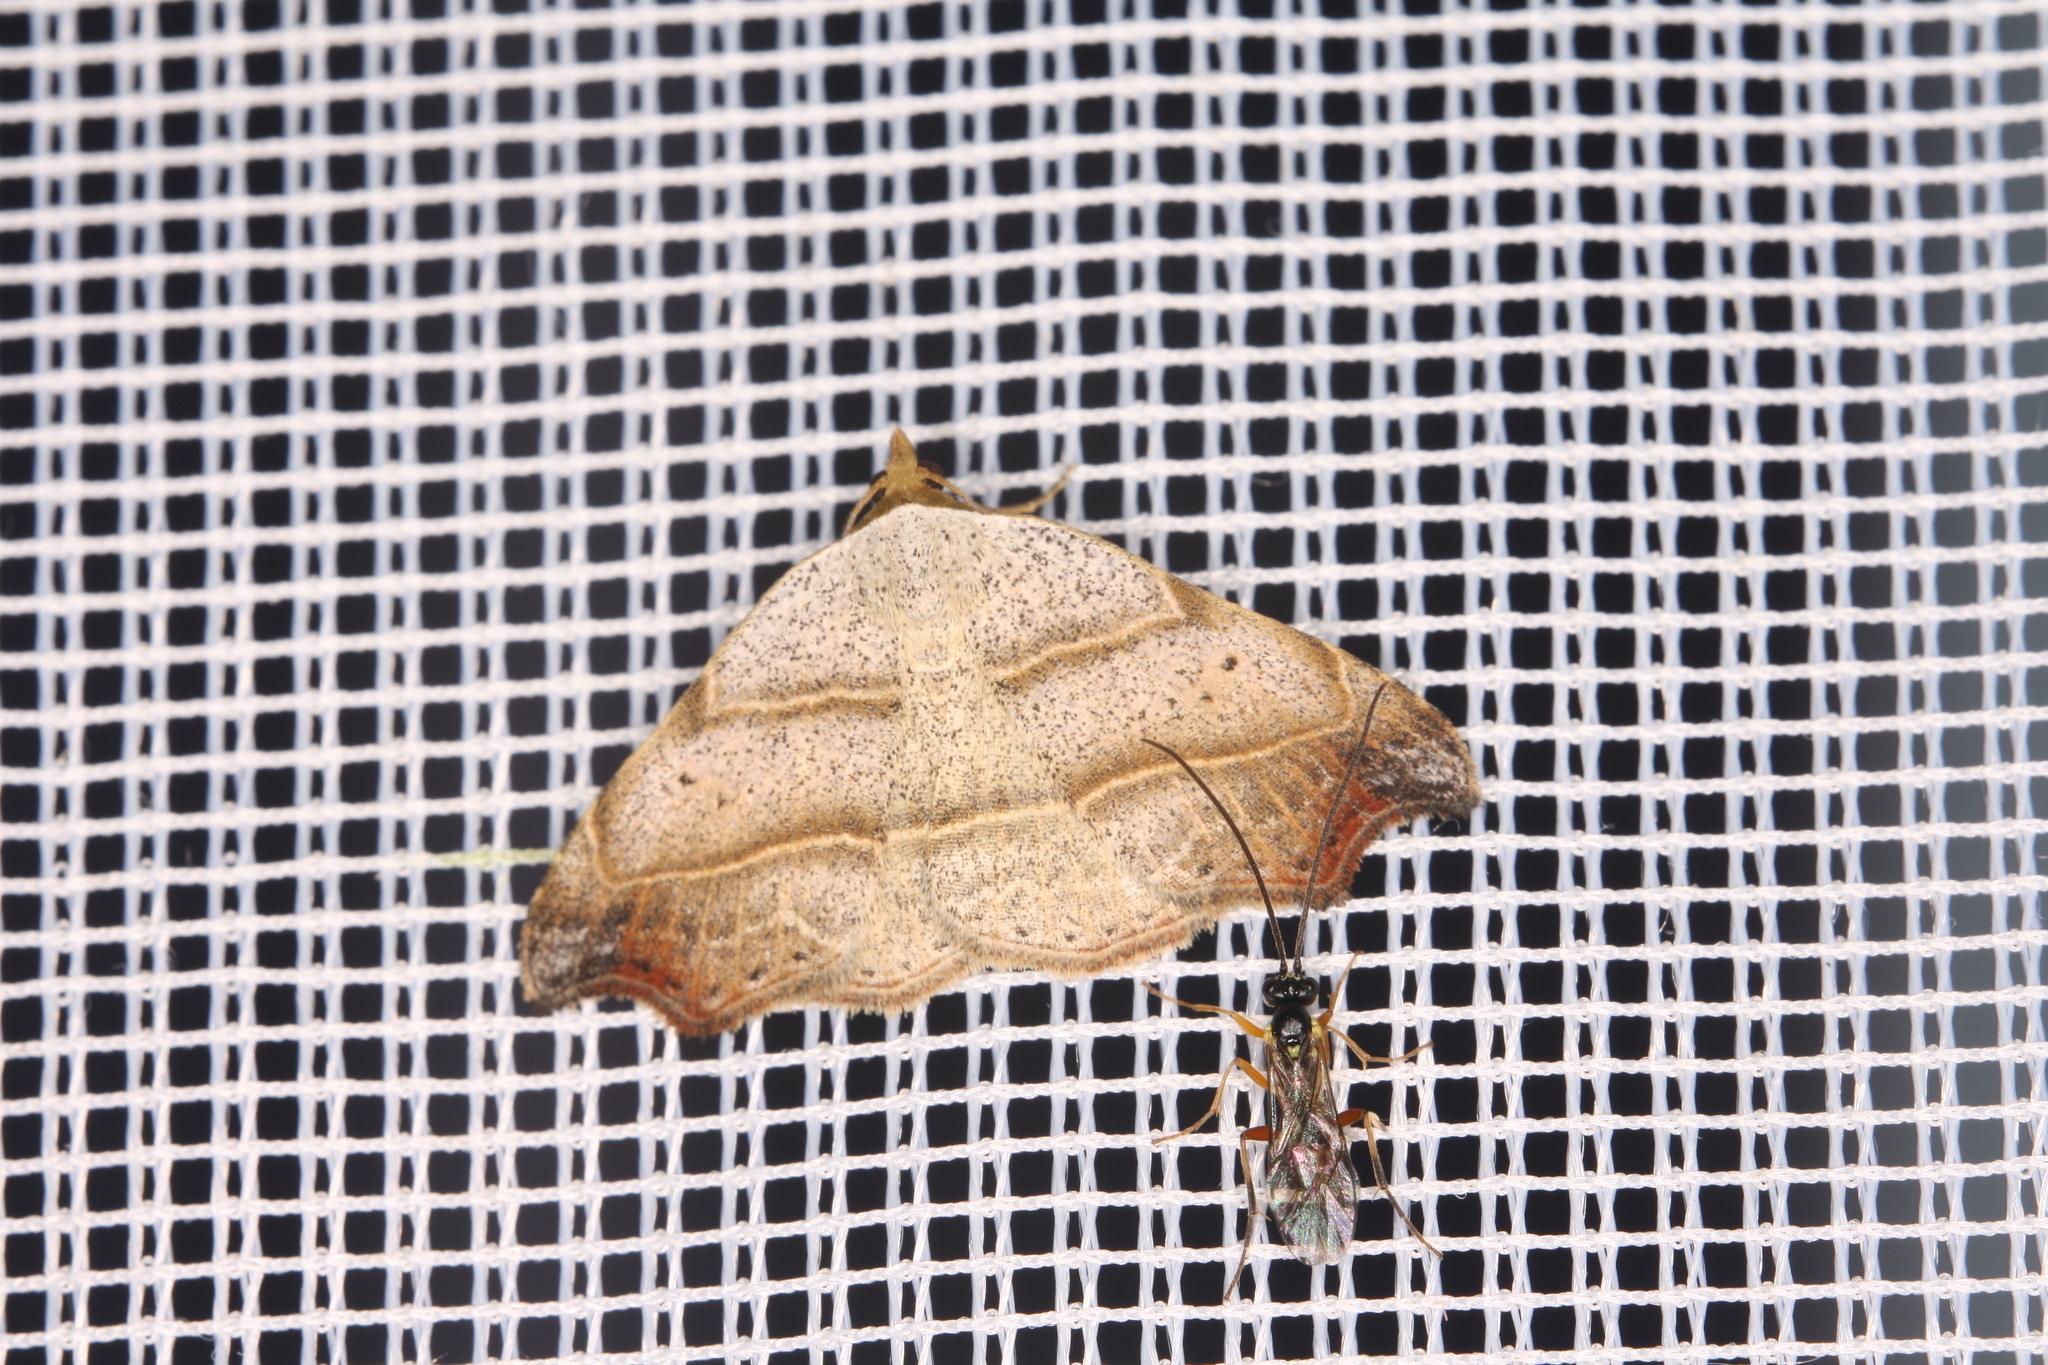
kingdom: Animalia
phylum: Arthropoda
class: Insecta
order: Lepidoptera
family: Erebidae
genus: Laspeyria
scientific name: Laspeyria flexula
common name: Beautiful hook-tip
